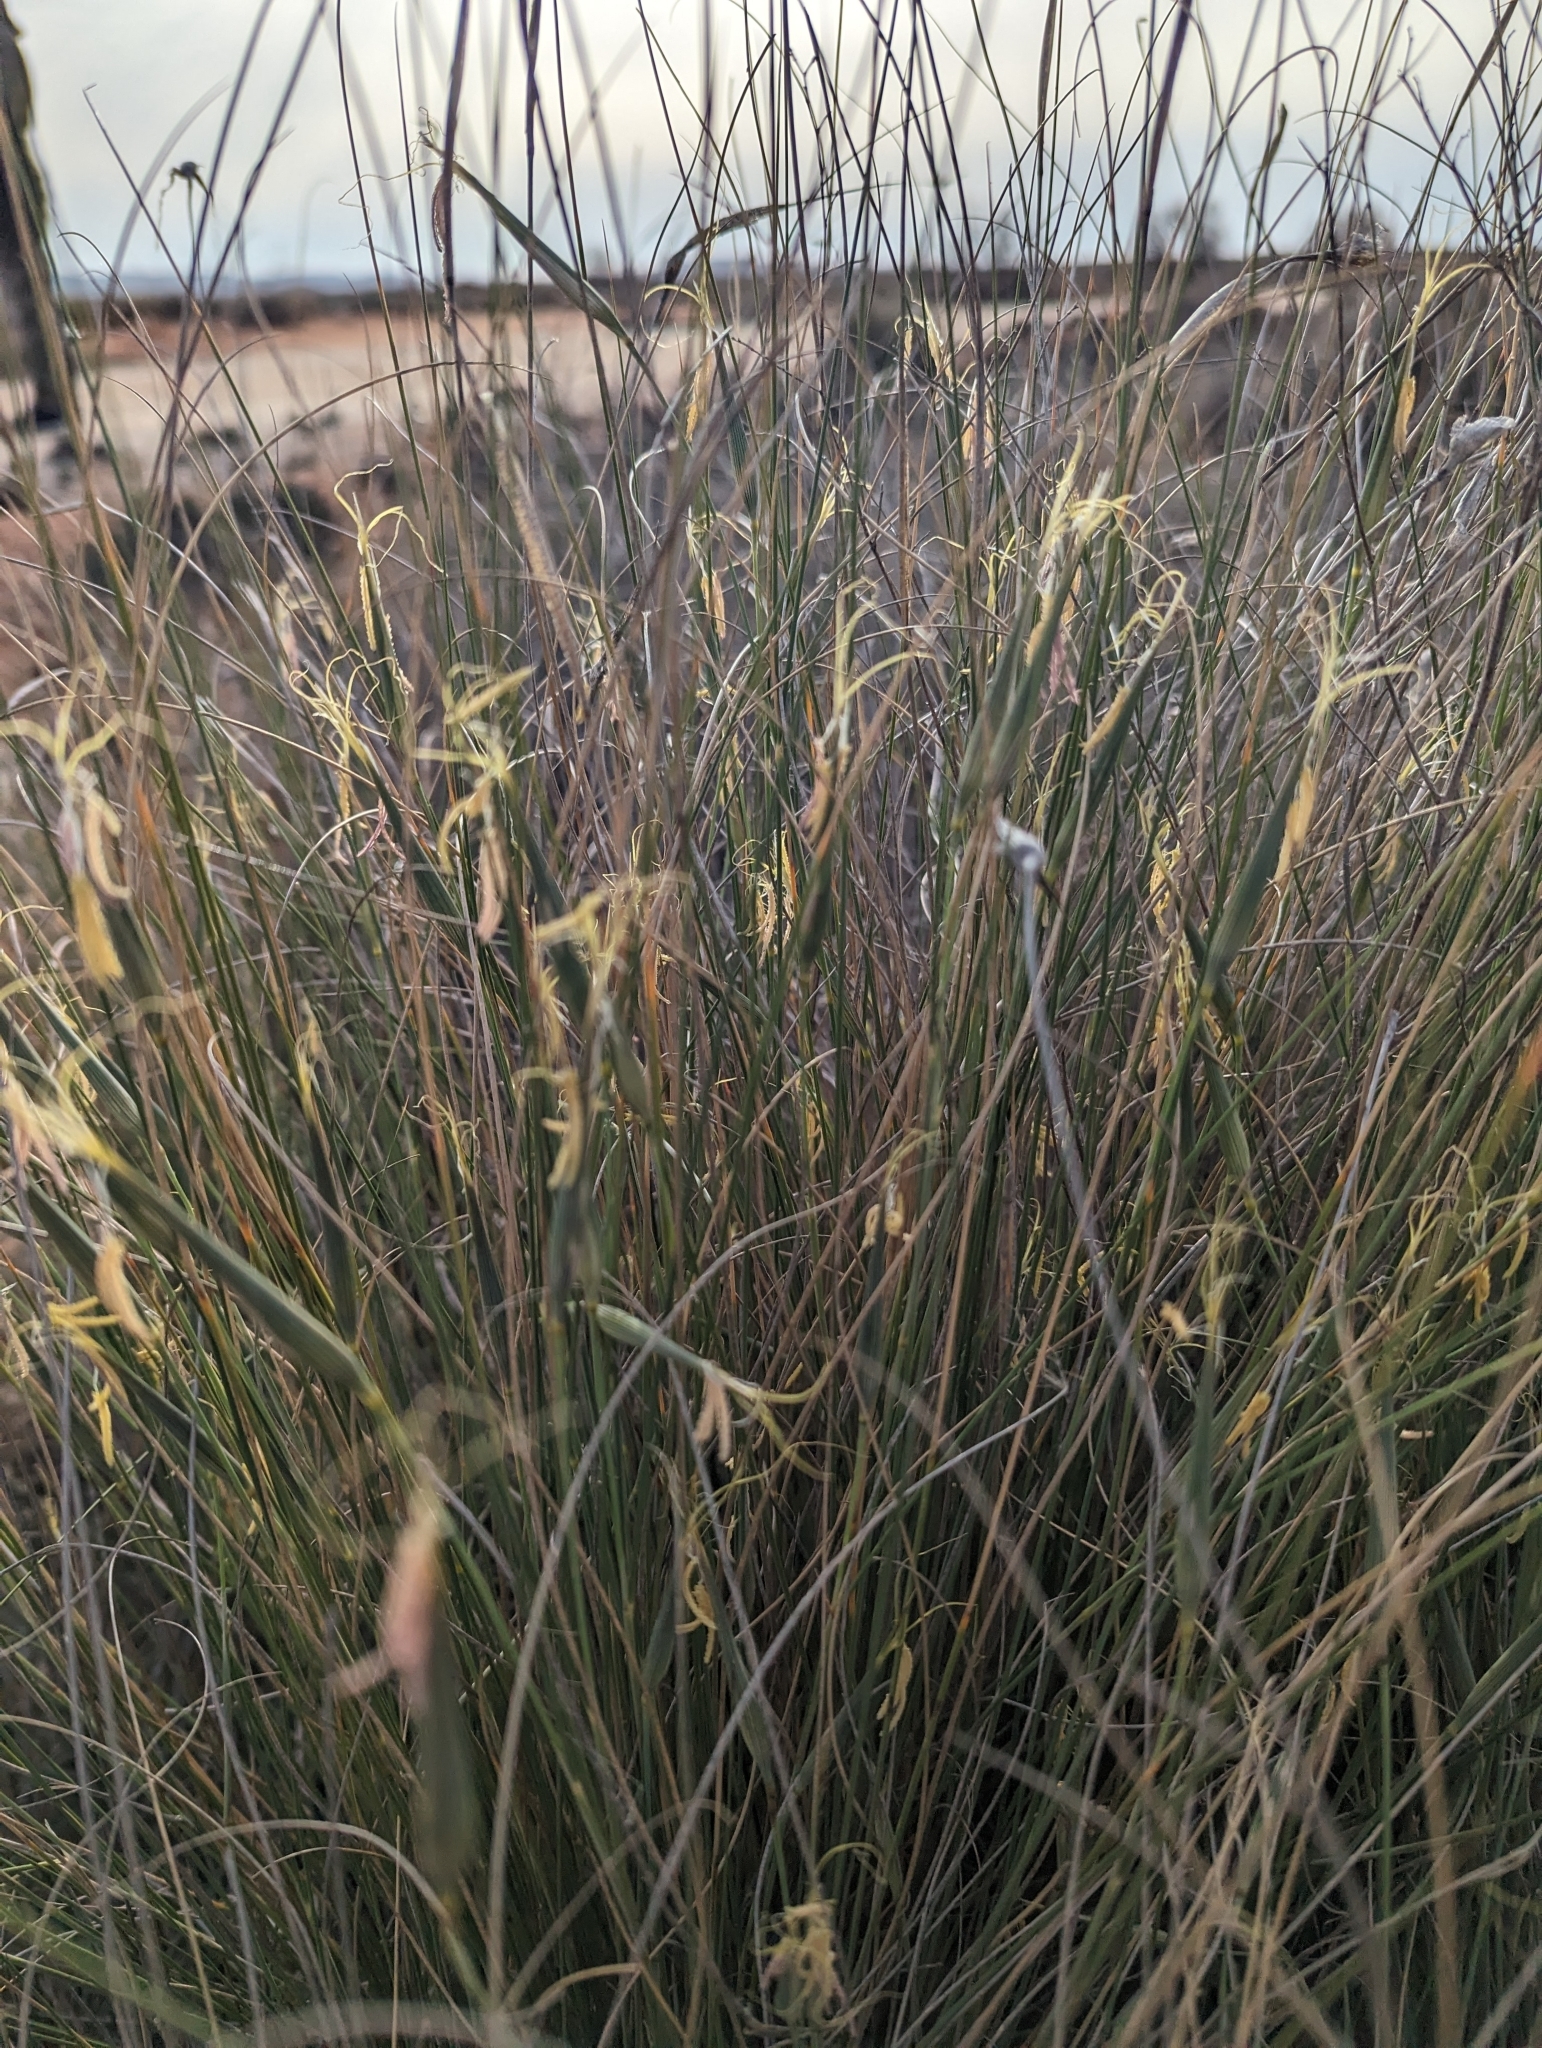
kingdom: Plantae
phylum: Tracheophyta
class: Liliopsida
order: Poales
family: Poaceae
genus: Lygeum
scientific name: Lygeum spartum
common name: Albardine
